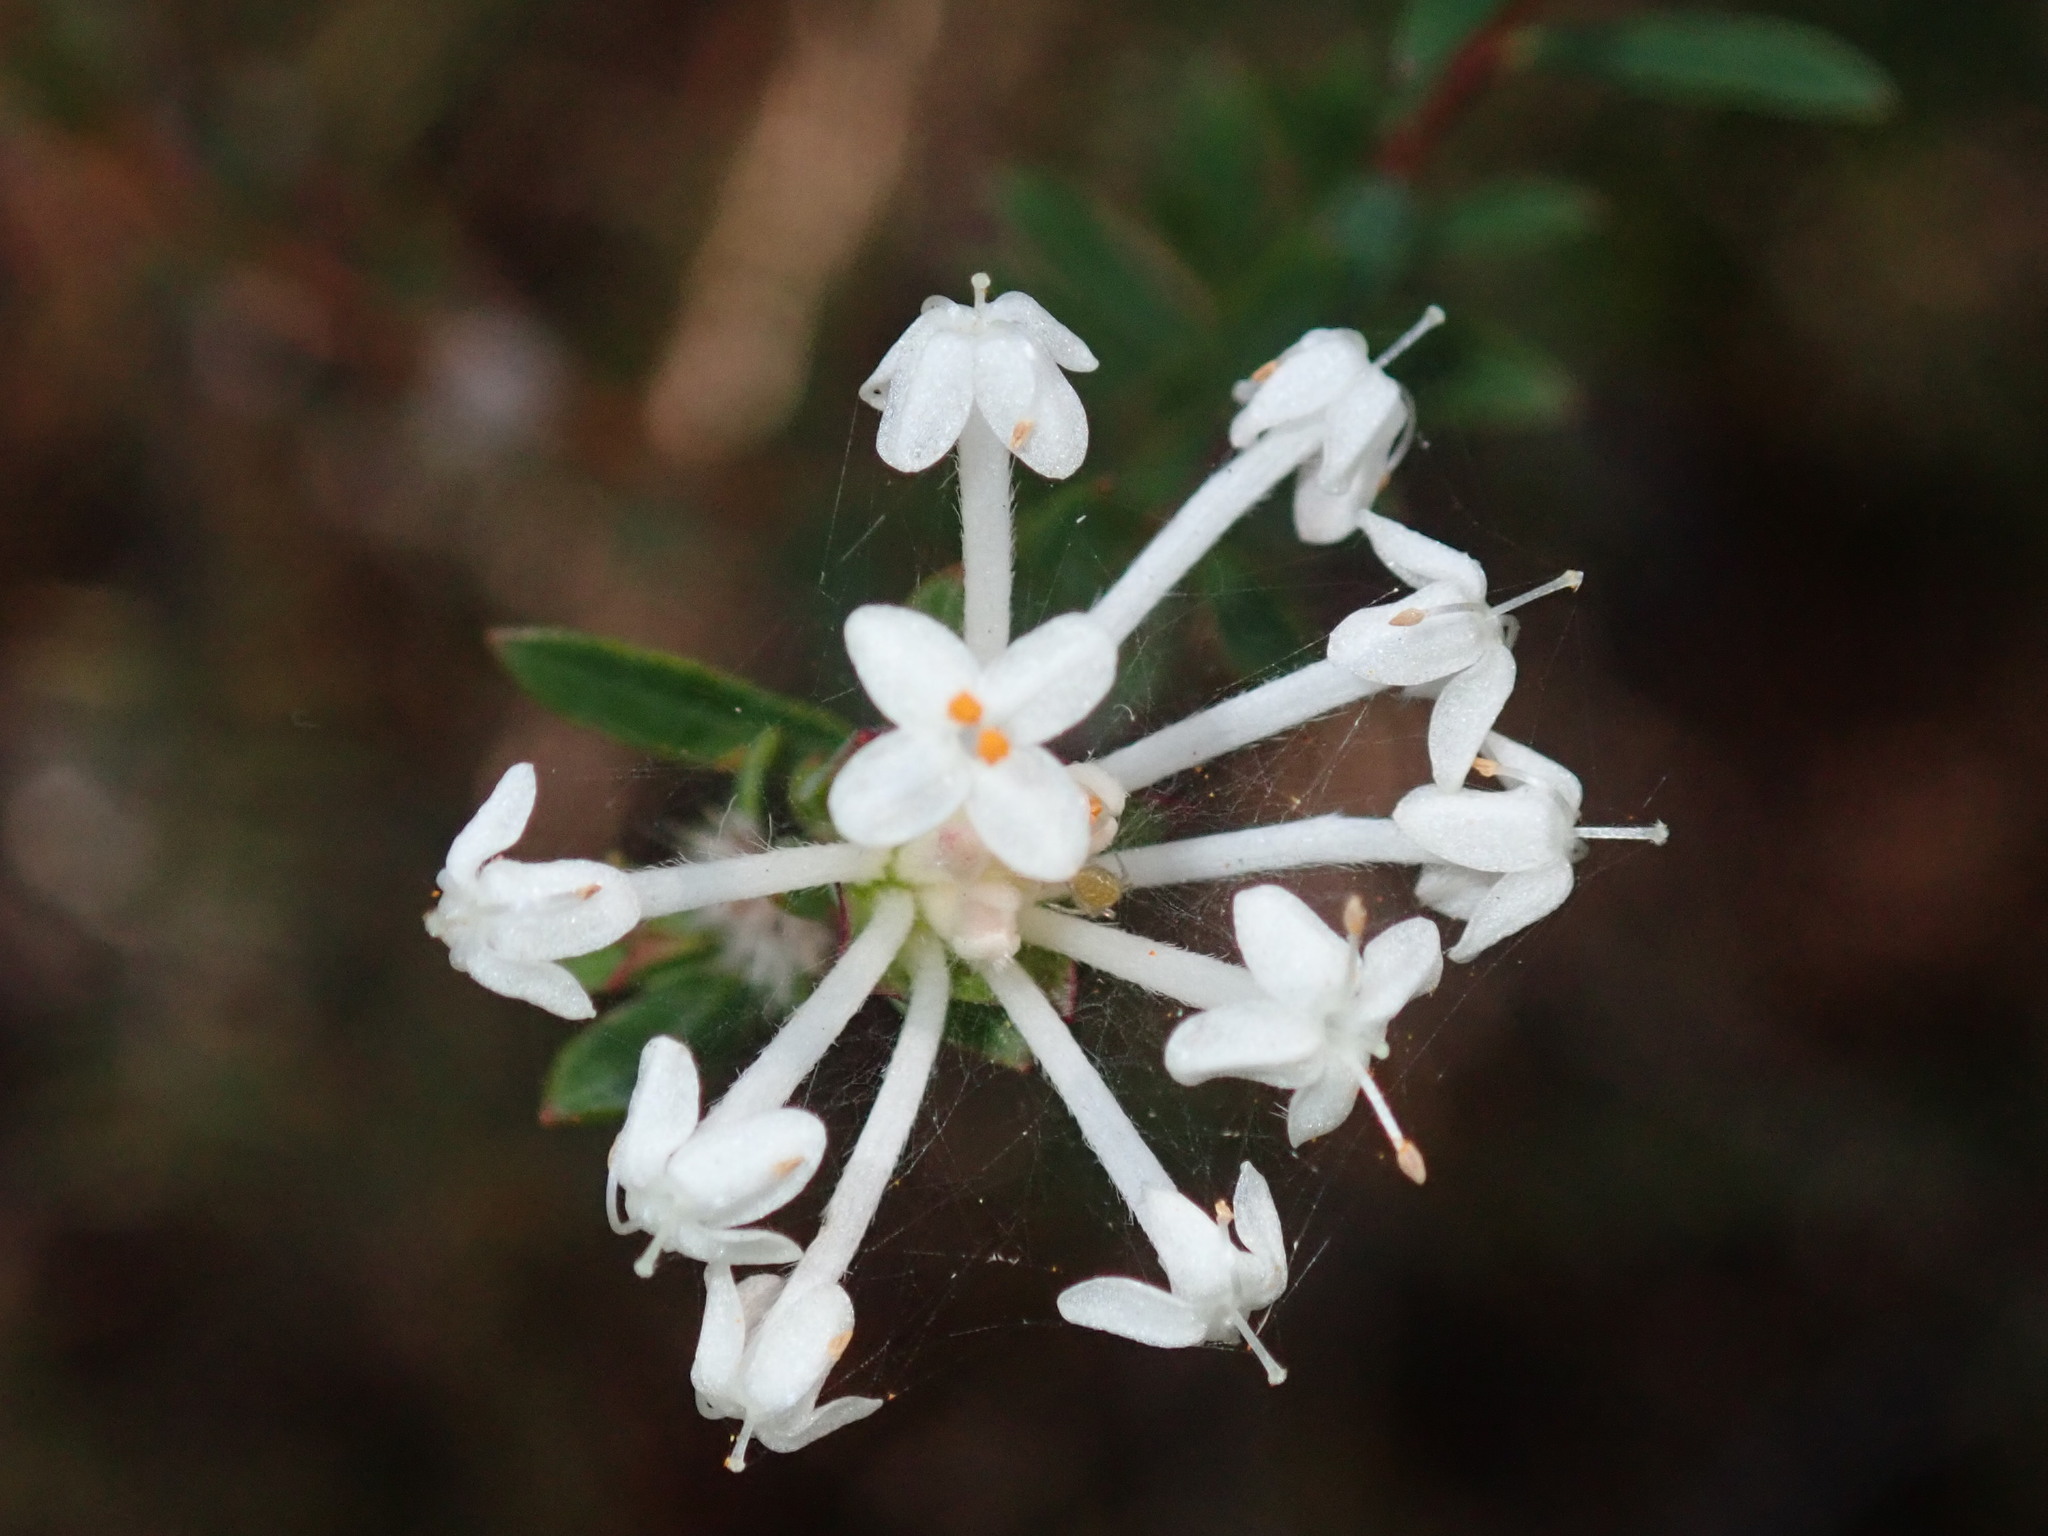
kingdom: Plantae
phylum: Tracheophyta
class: Magnoliopsida
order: Malvales
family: Thymelaeaceae
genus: Pimelea
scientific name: Pimelea linifolia
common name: Queen-of-the-bush
